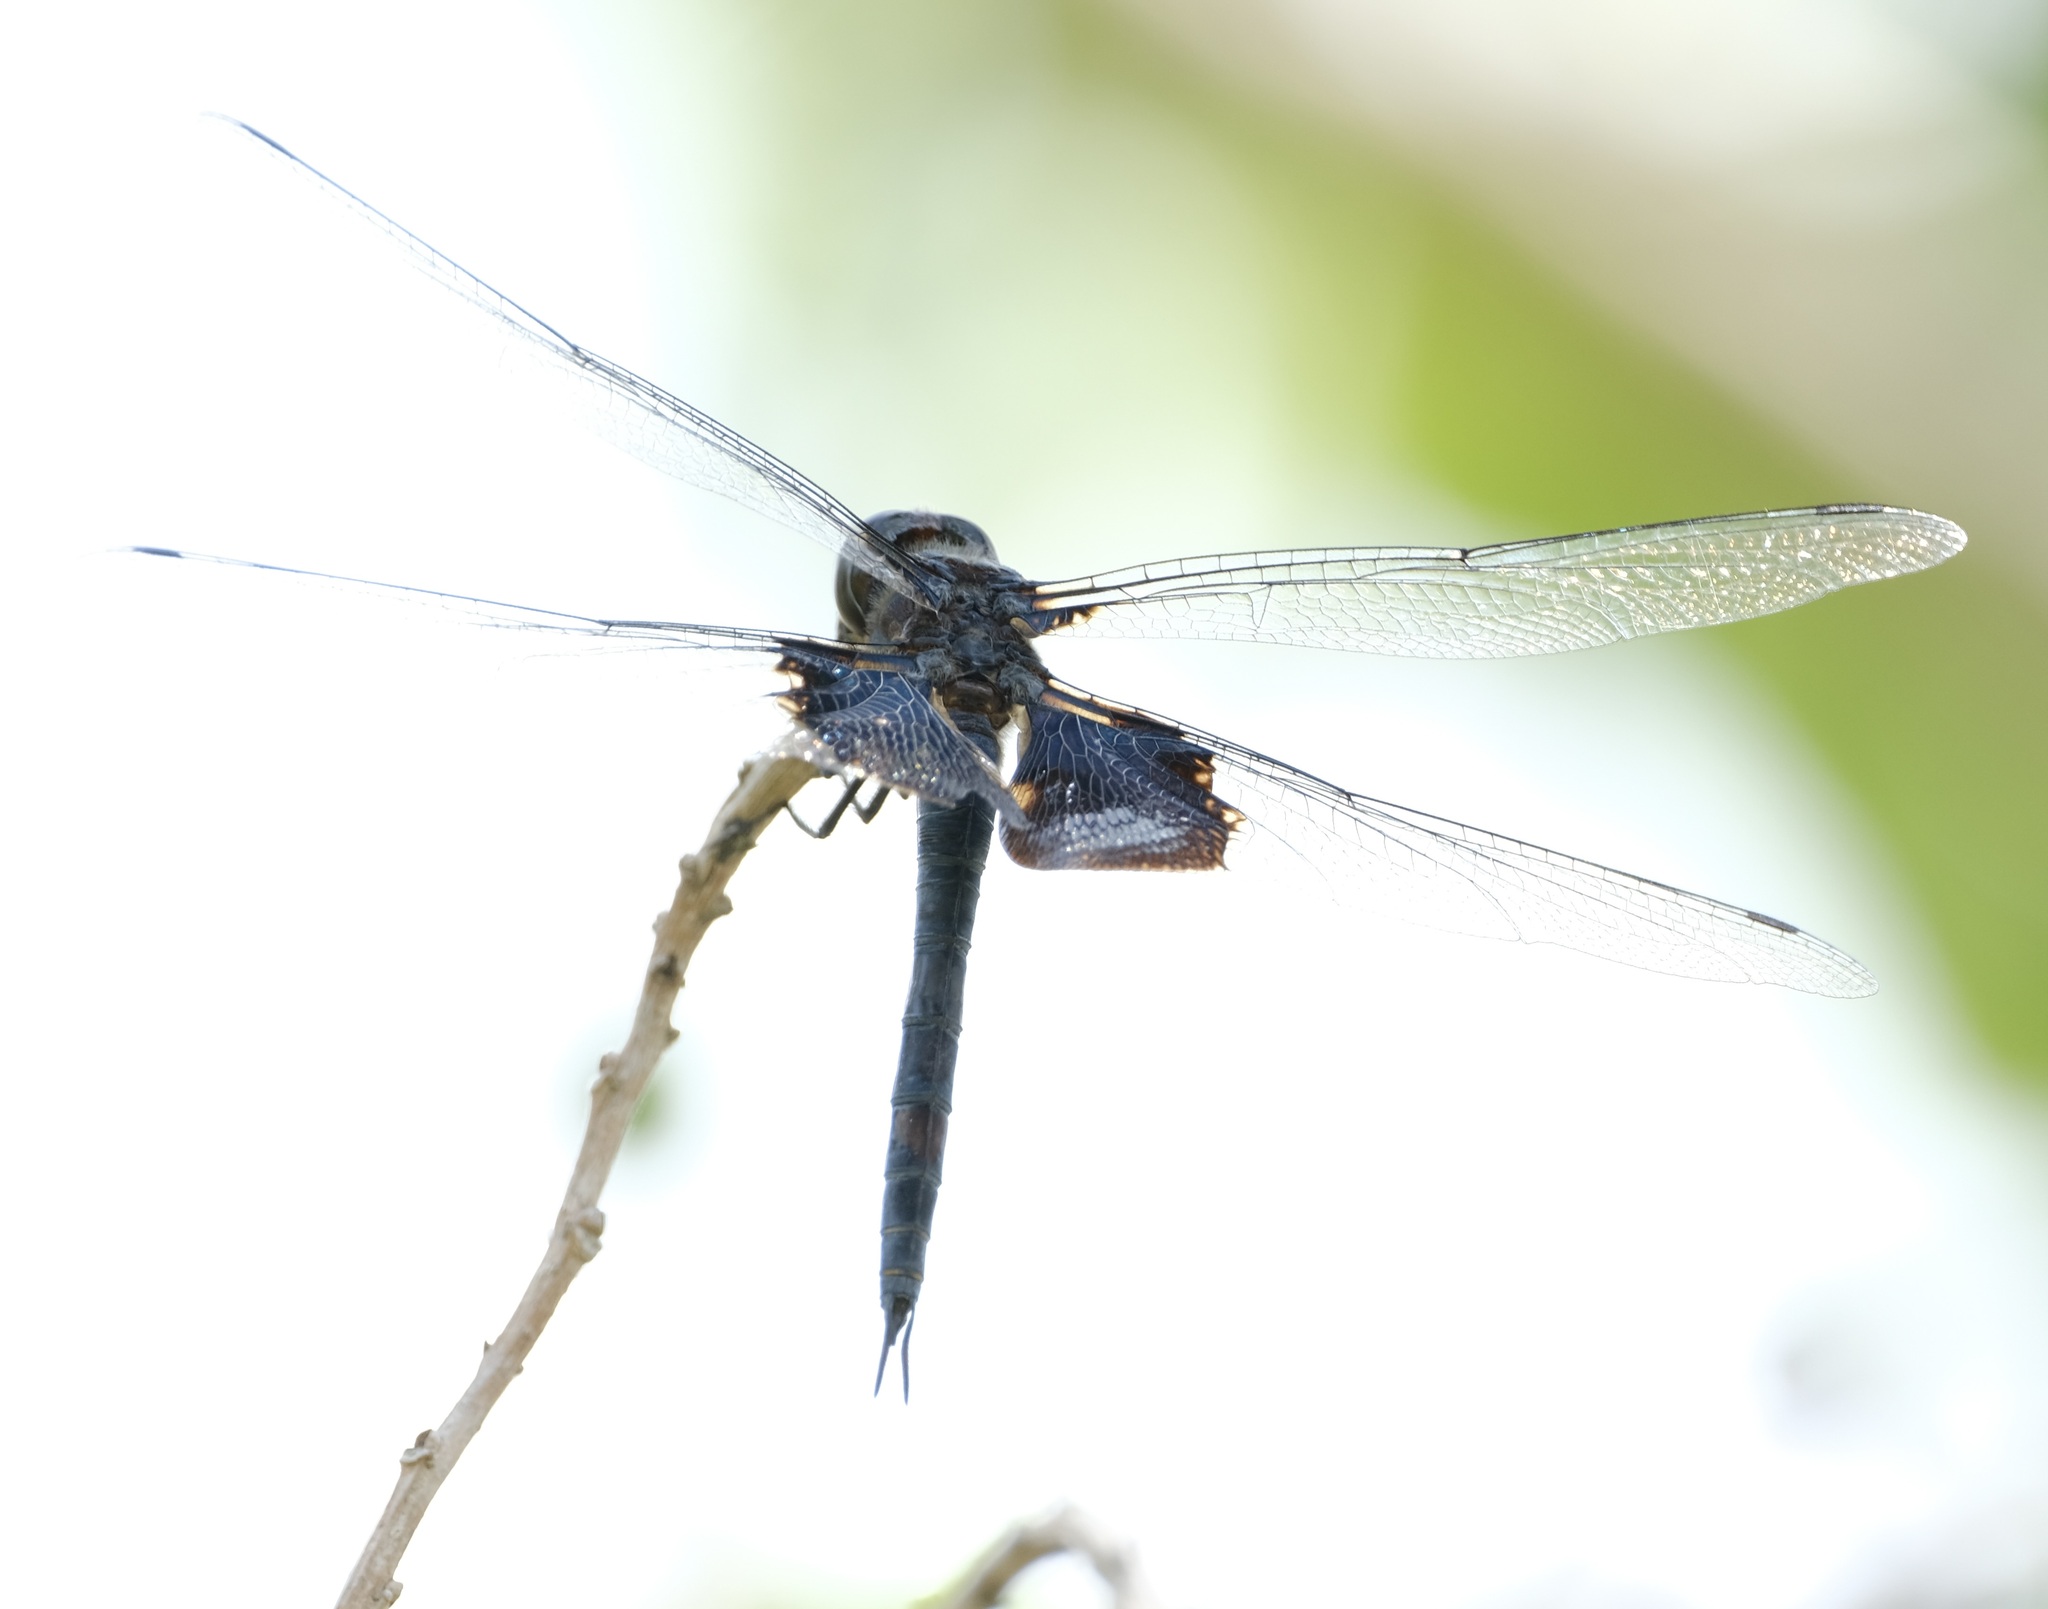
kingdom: Animalia
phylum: Arthropoda
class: Insecta
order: Odonata
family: Libellulidae
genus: Tramea
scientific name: Tramea lacerata
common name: Black saddlebags
